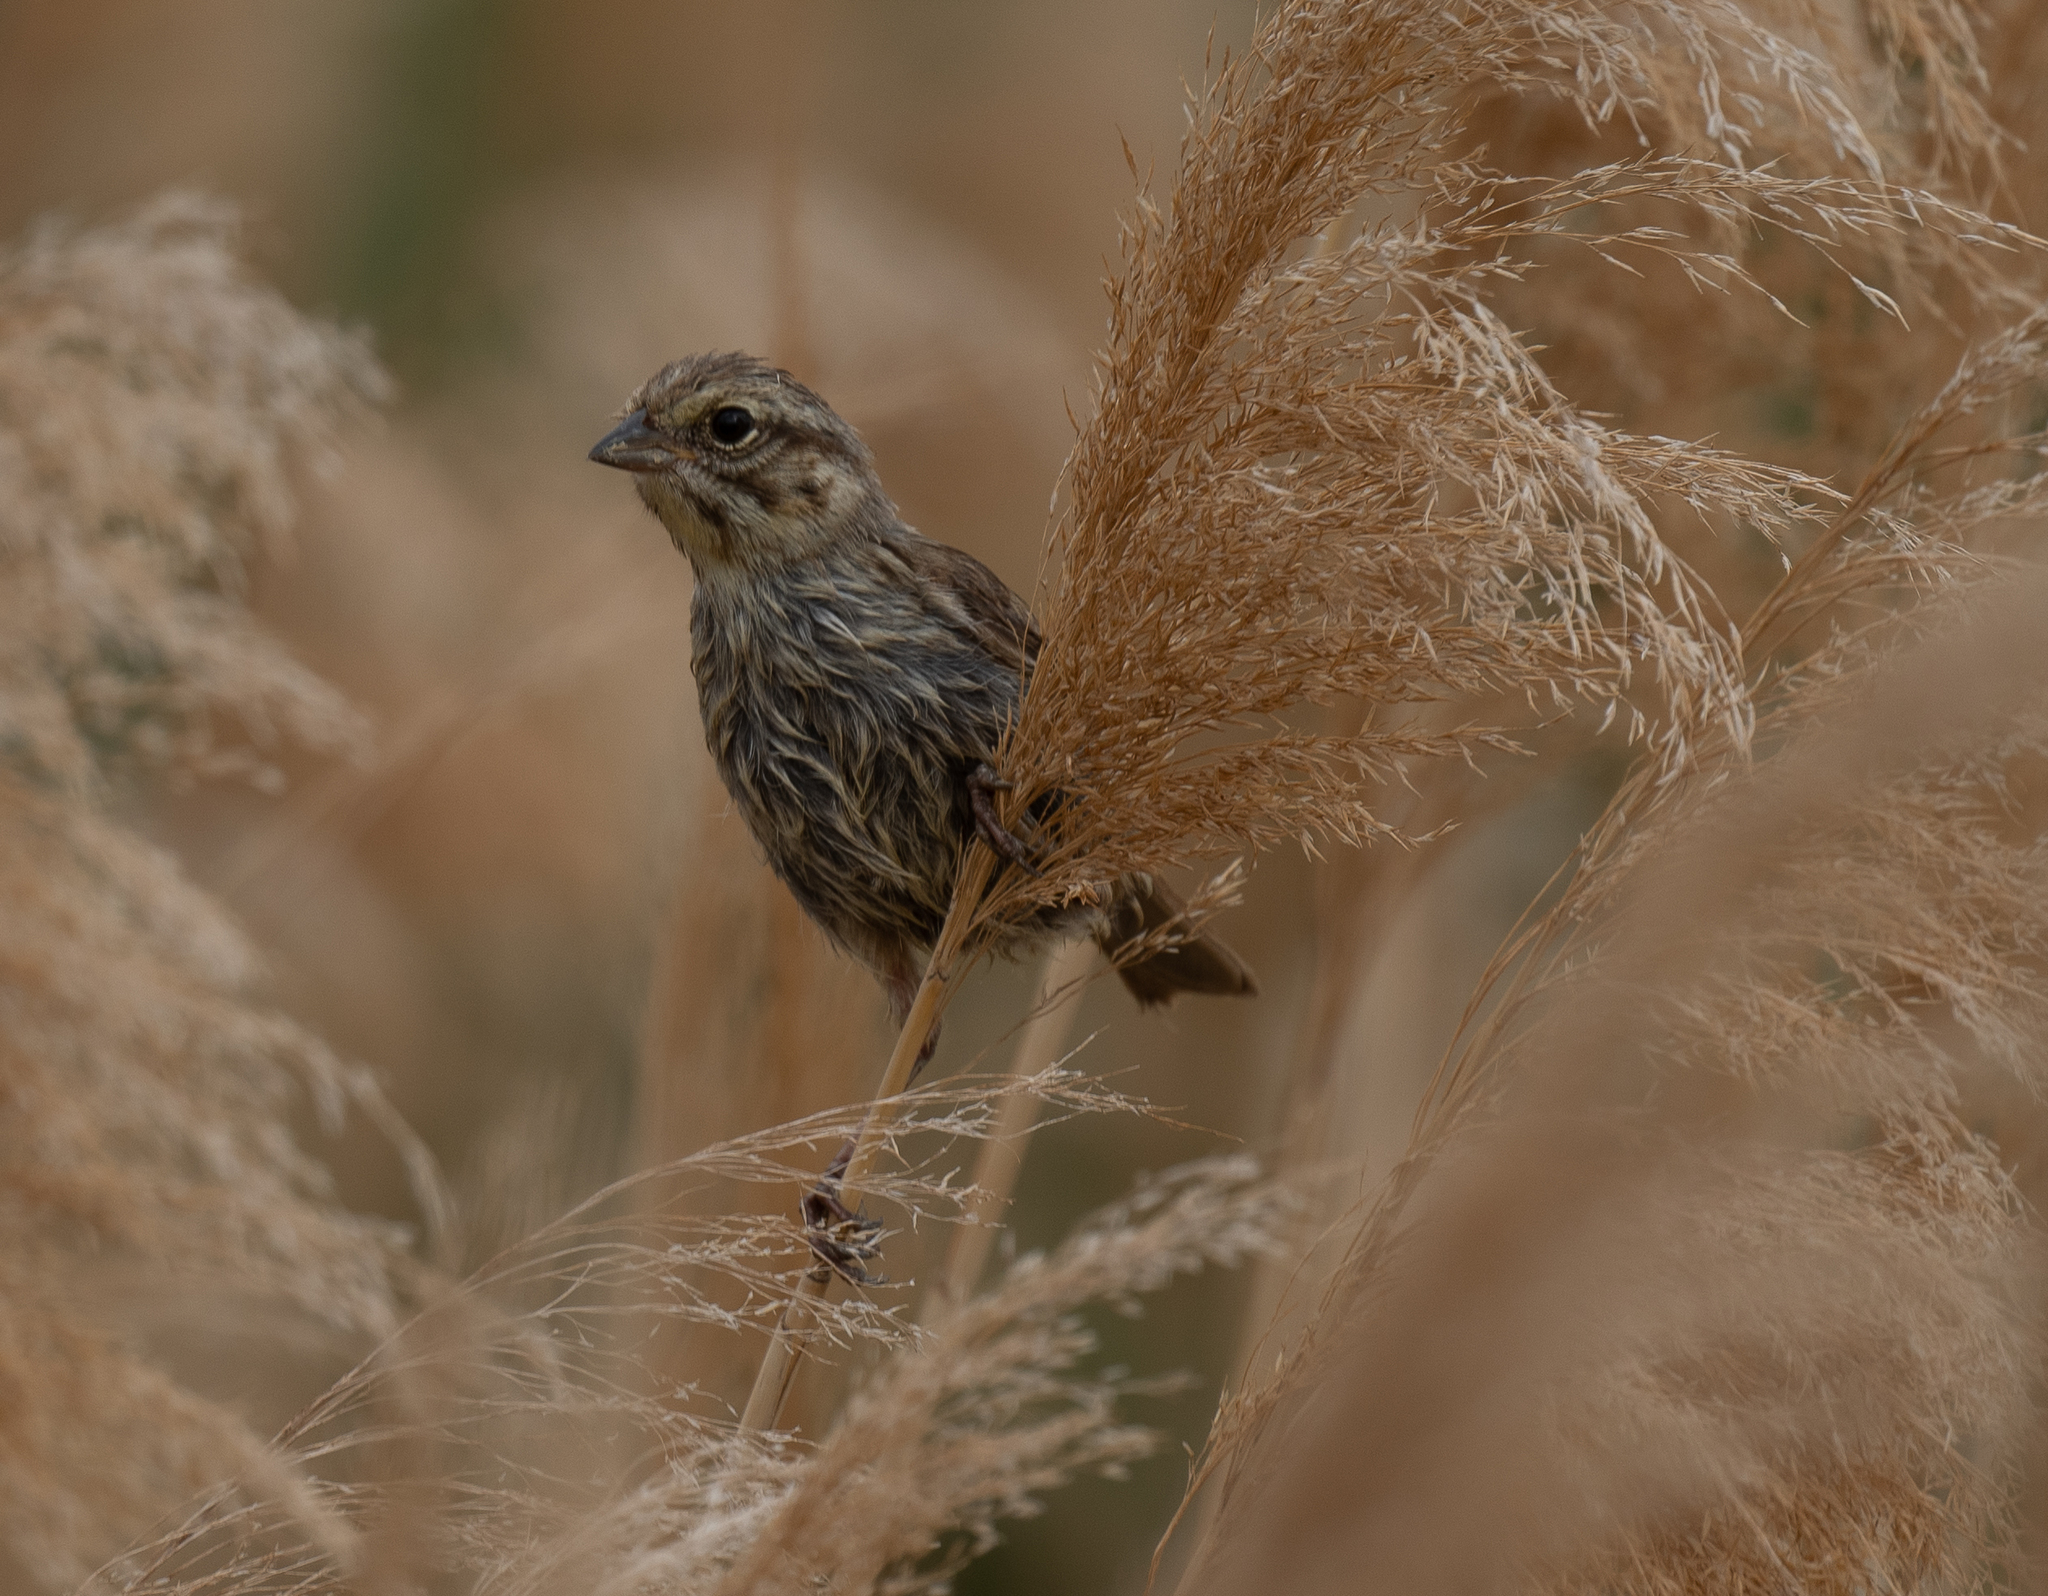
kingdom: Animalia
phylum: Chordata
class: Aves
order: Passeriformes
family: Passerellidae
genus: Melospiza
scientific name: Melospiza melodia
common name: Song sparrow
